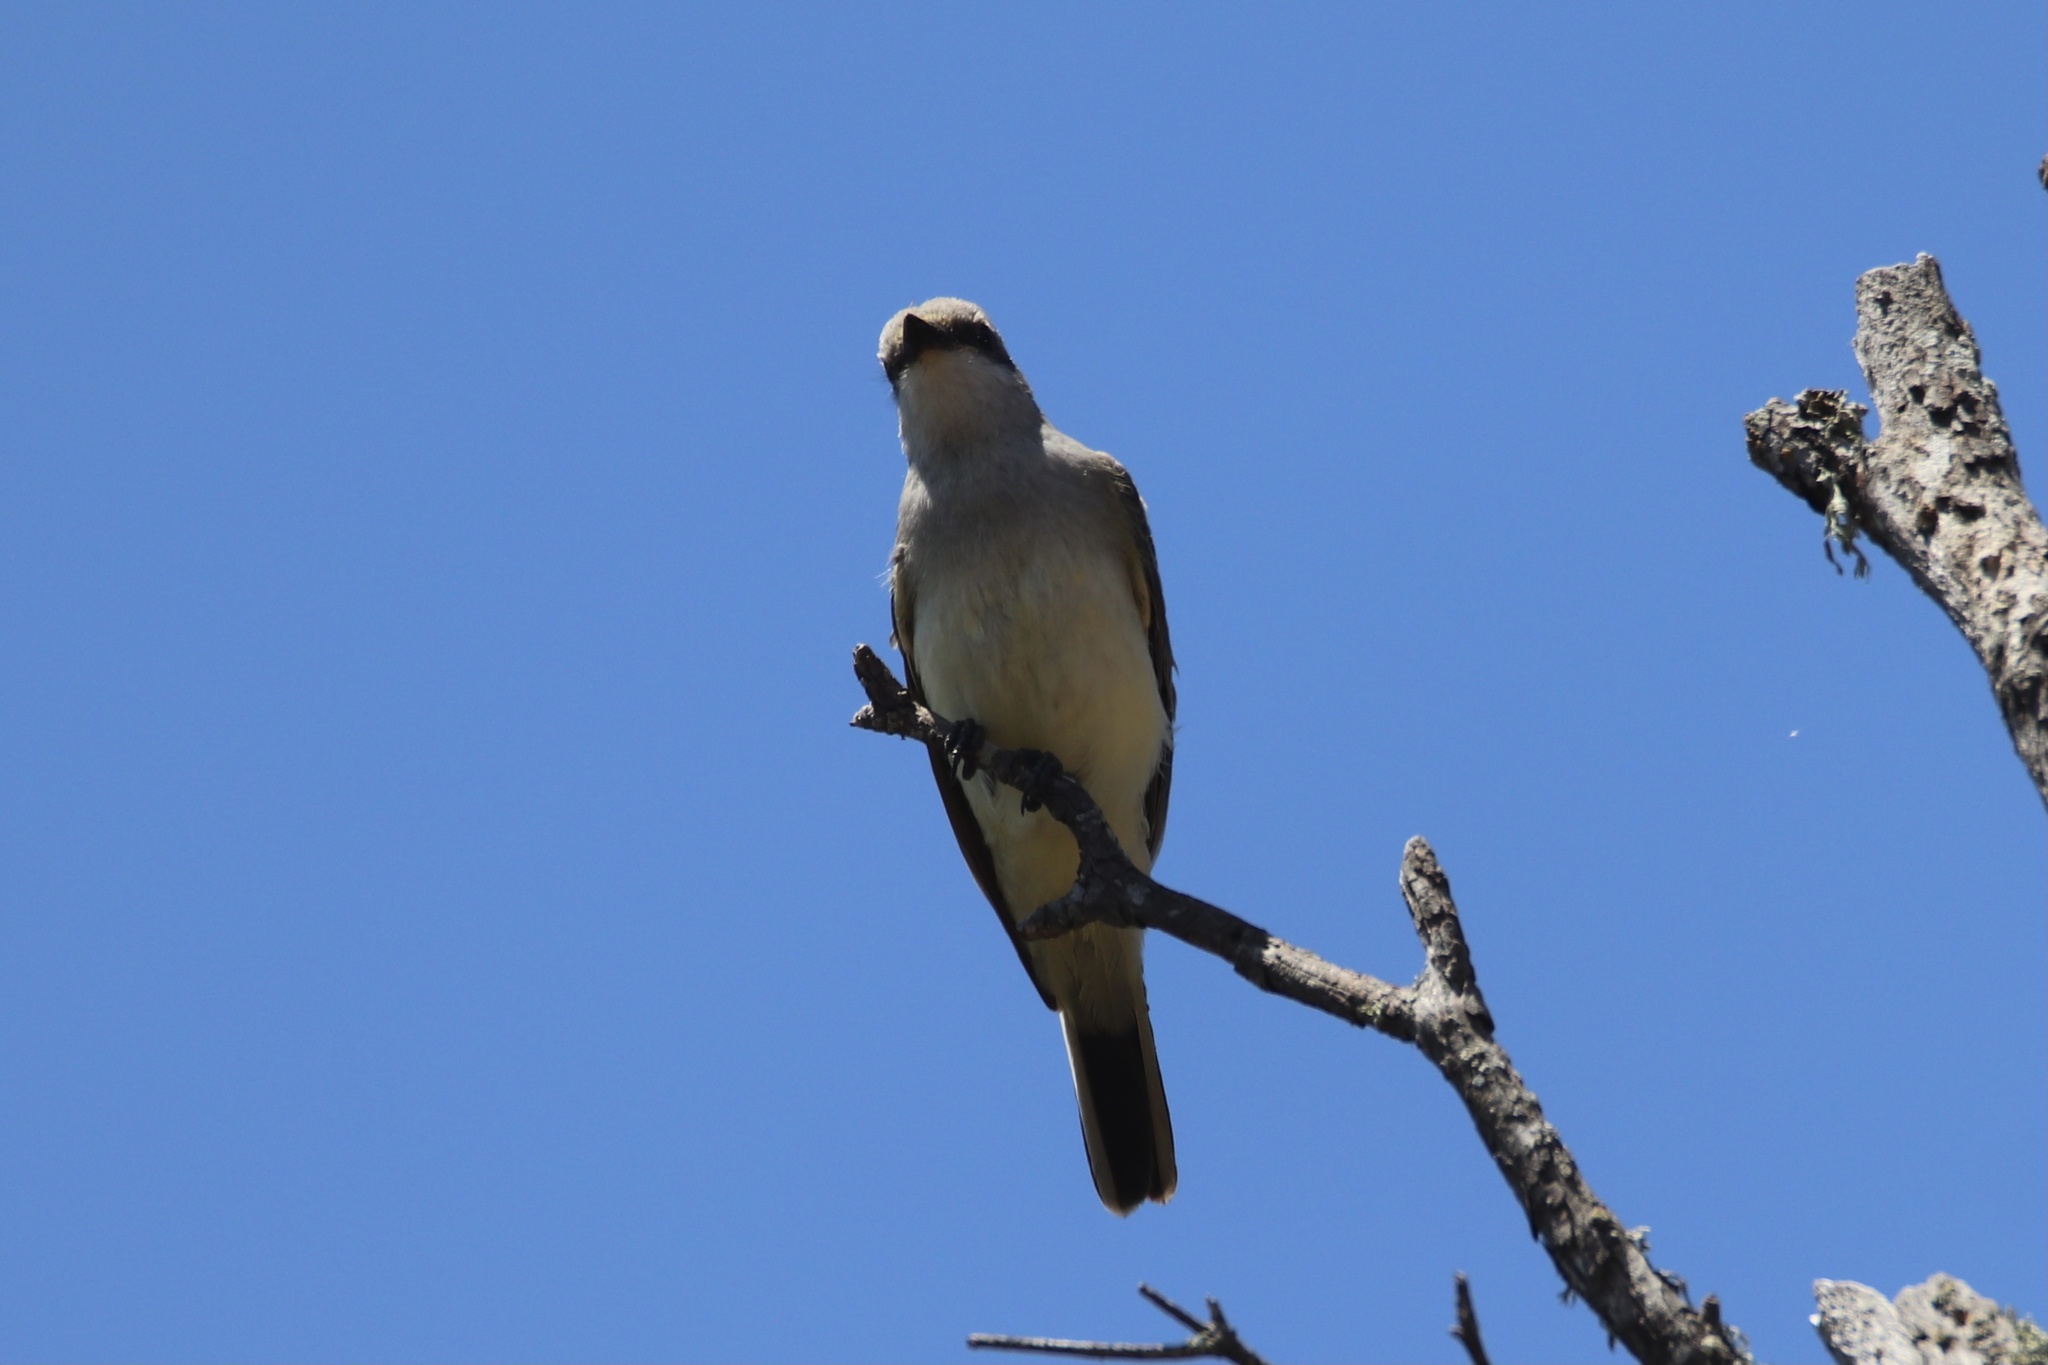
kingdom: Animalia
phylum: Chordata
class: Aves
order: Passeriformes
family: Tyrannidae
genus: Tyrannus
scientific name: Tyrannus verticalis
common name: Western kingbird
